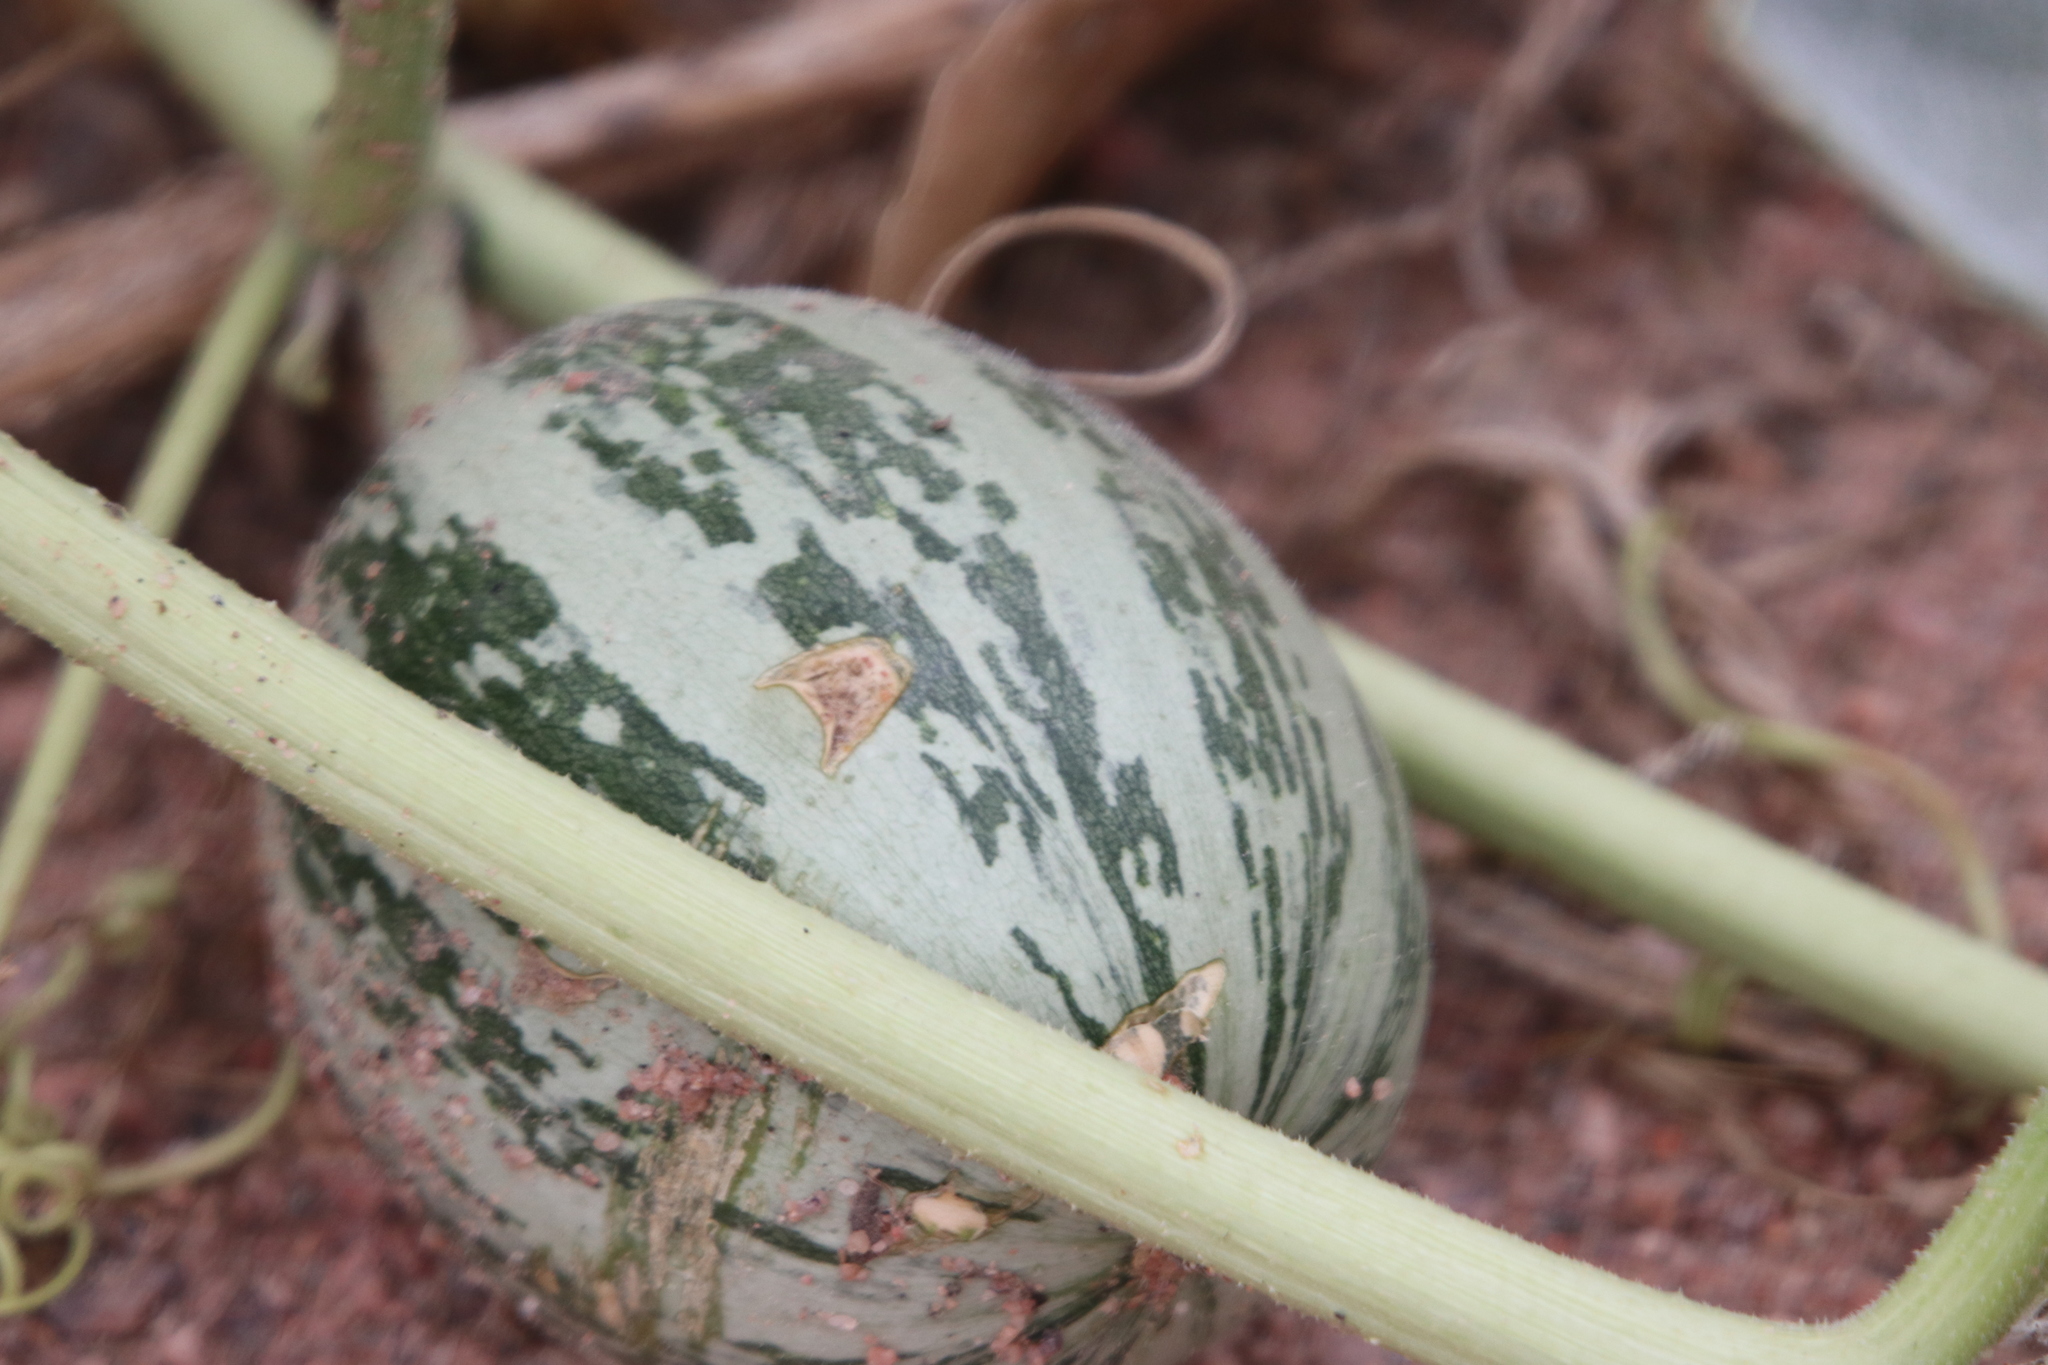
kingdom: Plantae
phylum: Tracheophyta
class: Magnoliopsida
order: Cucurbitales
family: Cucurbitaceae
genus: Cucurbita
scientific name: Cucurbita foetidissima
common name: Buffalo gourd
